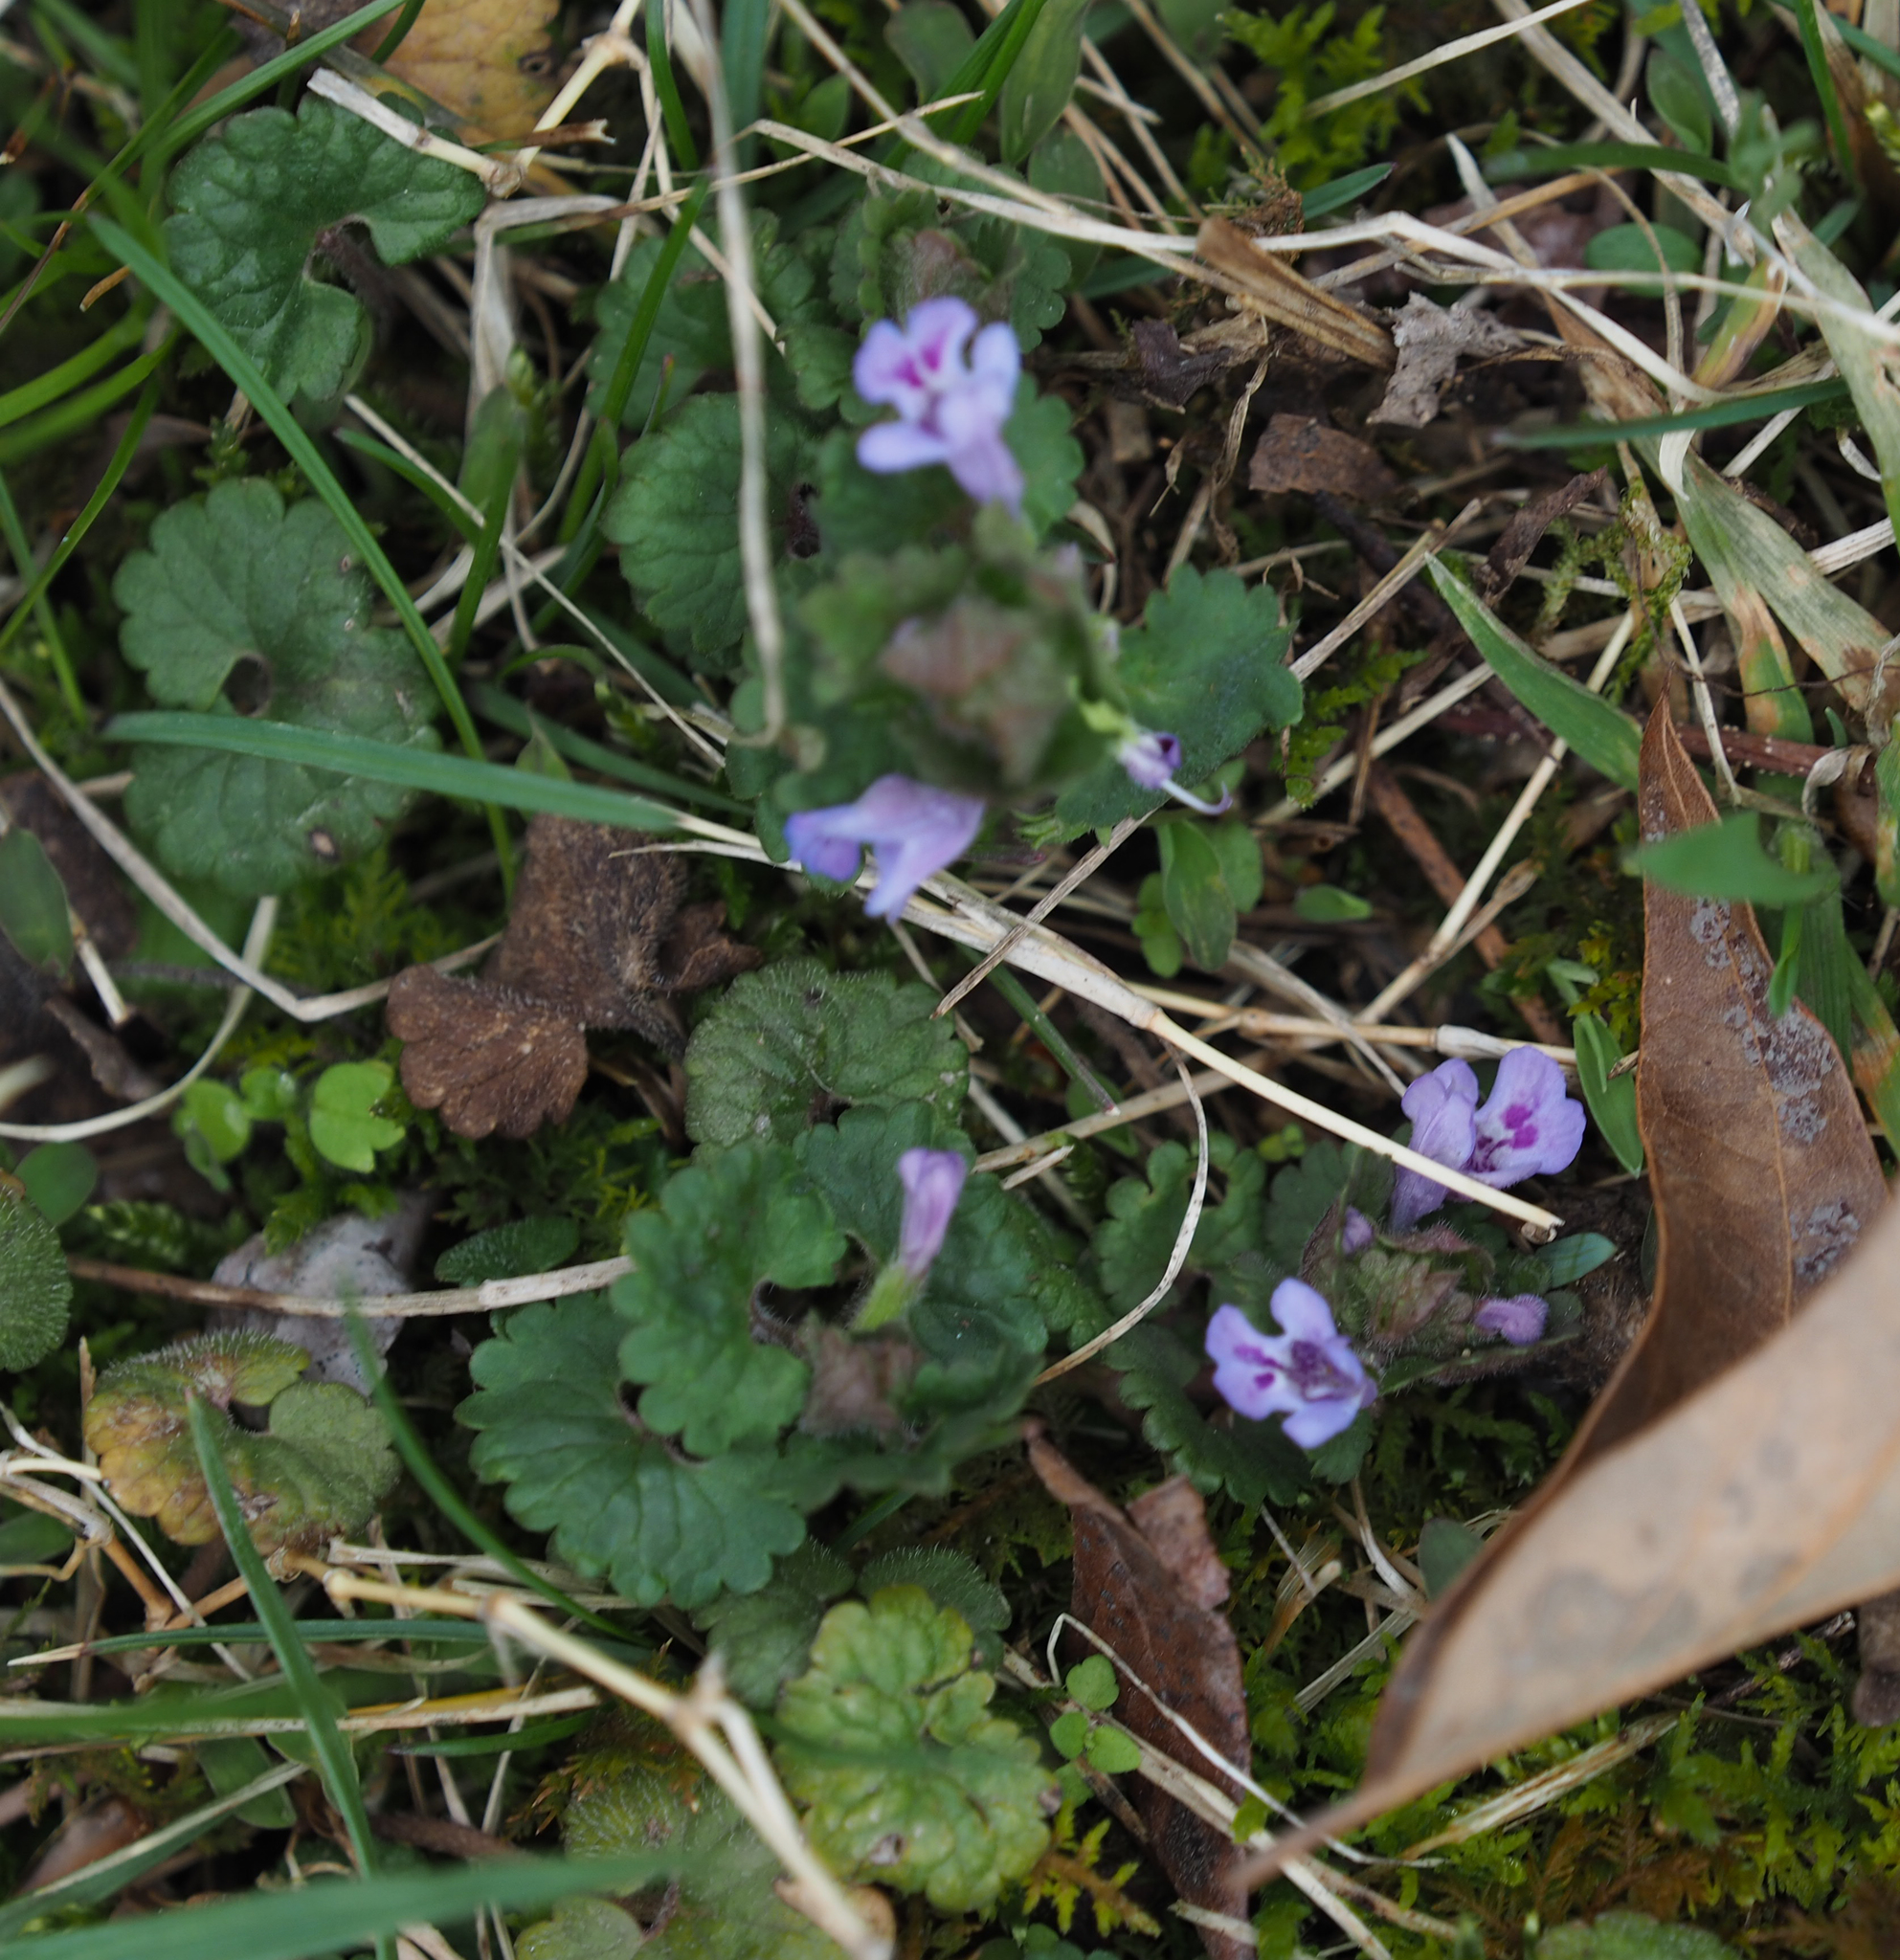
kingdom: Plantae
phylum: Tracheophyta
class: Magnoliopsida
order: Lamiales
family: Lamiaceae
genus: Glechoma
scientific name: Glechoma hederacea
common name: Ground ivy
